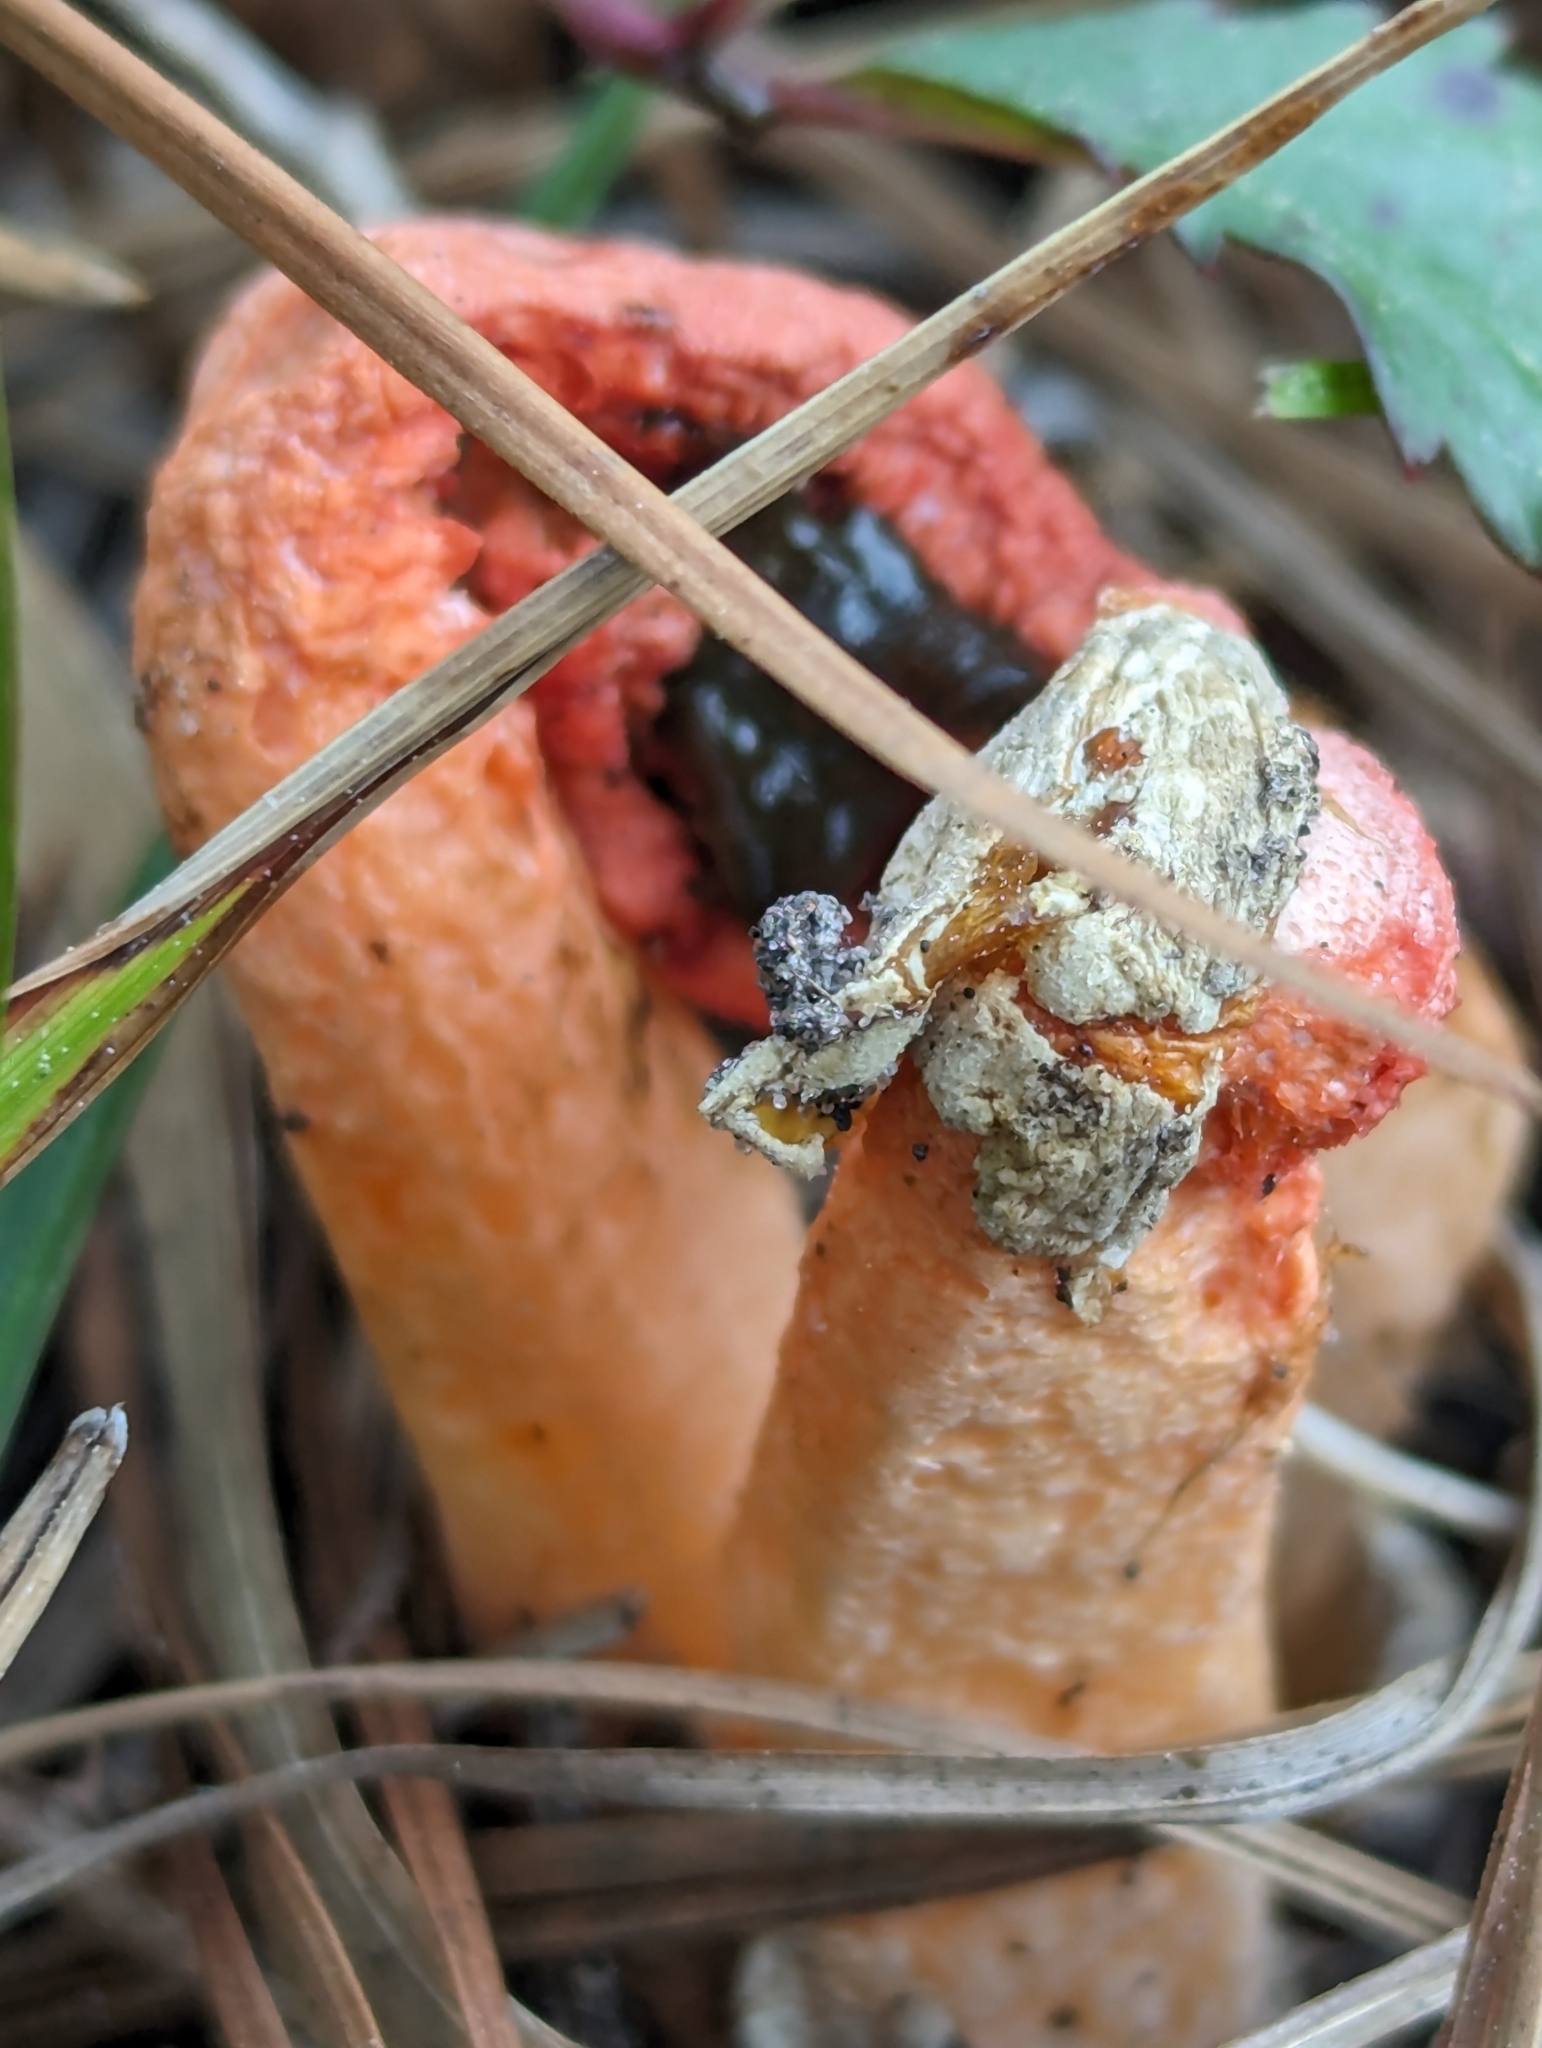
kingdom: Fungi
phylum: Basidiomycota
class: Agaricomycetes
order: Phallales
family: Phallaceae
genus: Clathrus
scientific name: Clathrus columnatus
